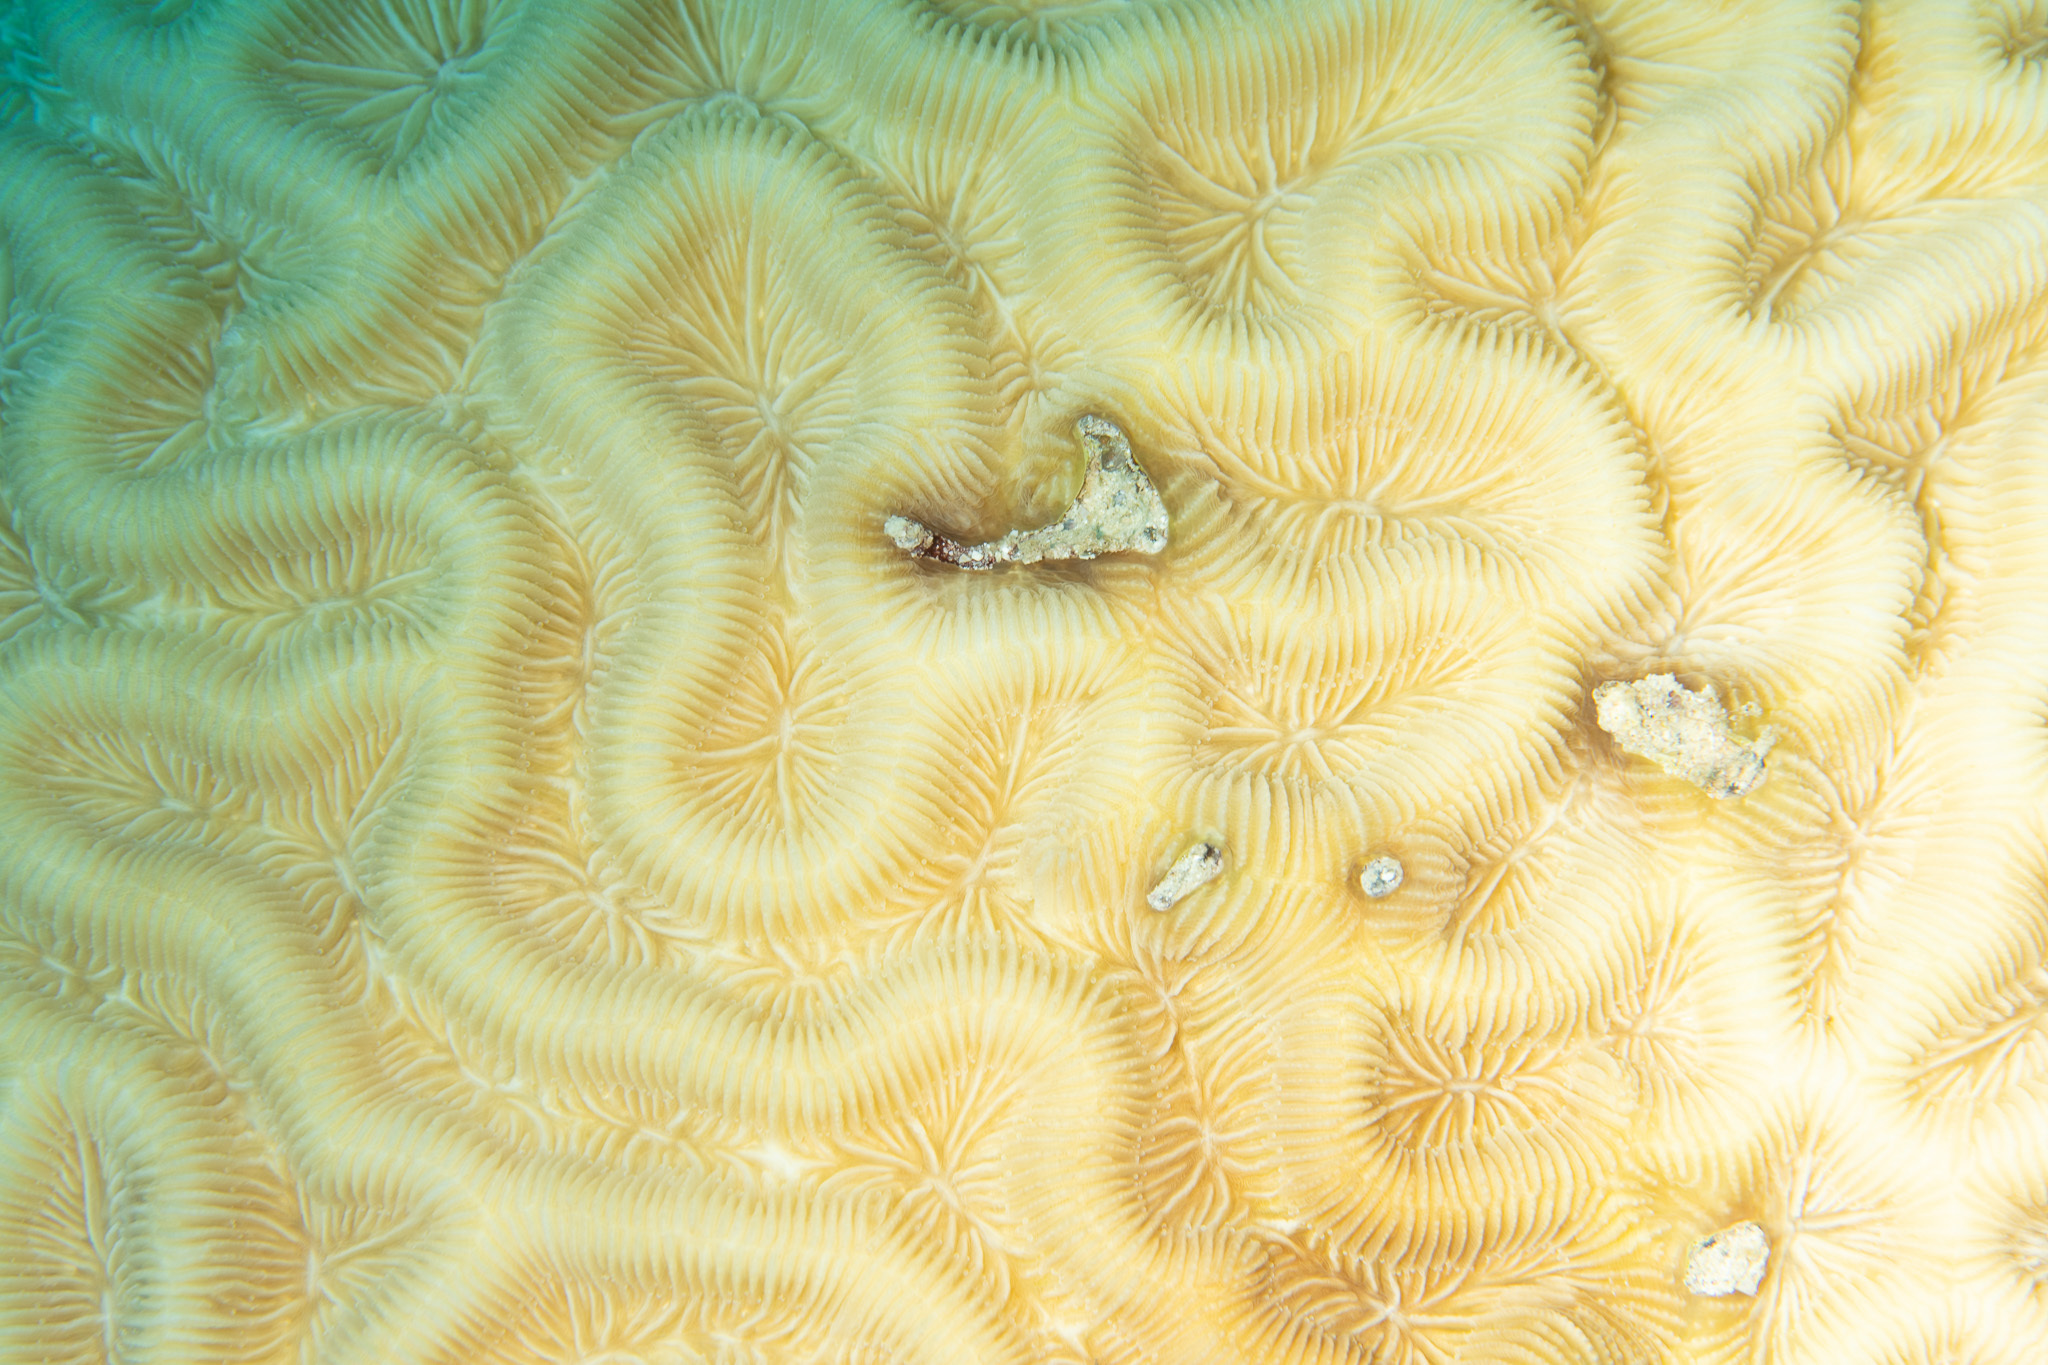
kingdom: Animalia
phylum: Cnidaria
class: Anthozoa
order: Scleractinia
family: Faviidae
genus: Colpophyllia
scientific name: Colpophyllia natans
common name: Boulder brain coral
